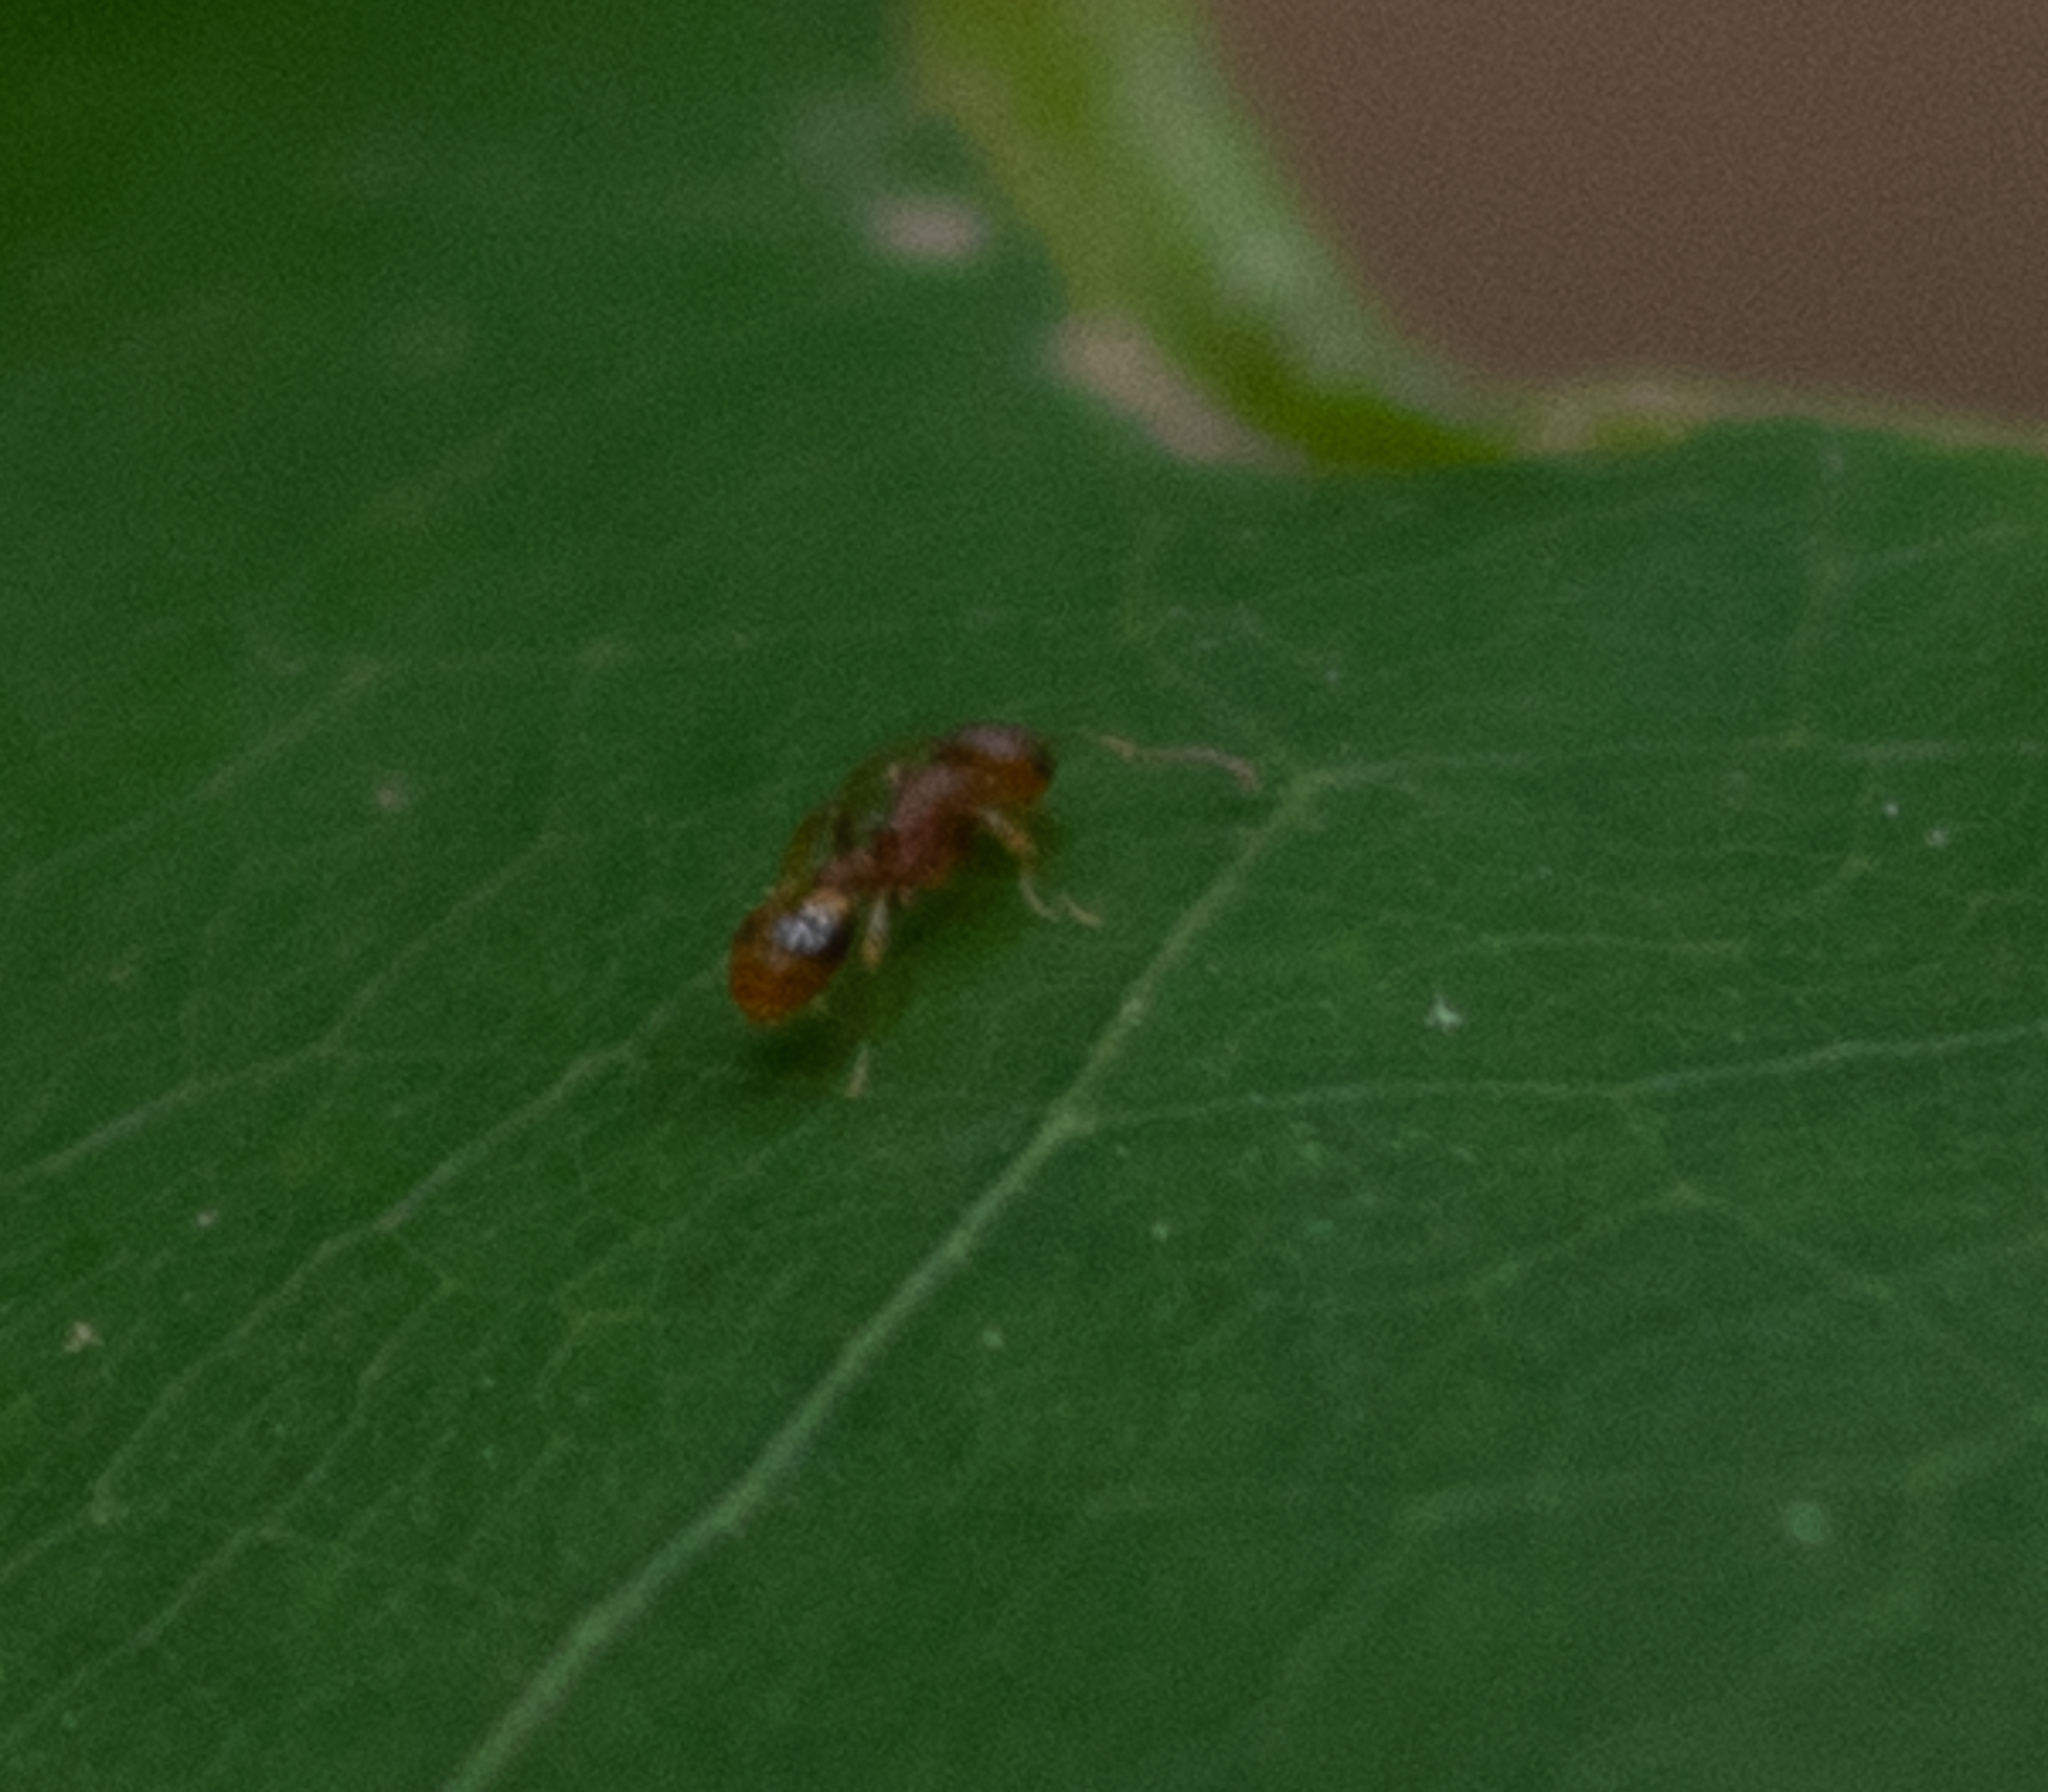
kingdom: Animalia
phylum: Arthropoda
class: Insecta
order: Hymenoptera
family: Formicidae
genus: Temnothorax
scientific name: Temnothorax curvispinosus
